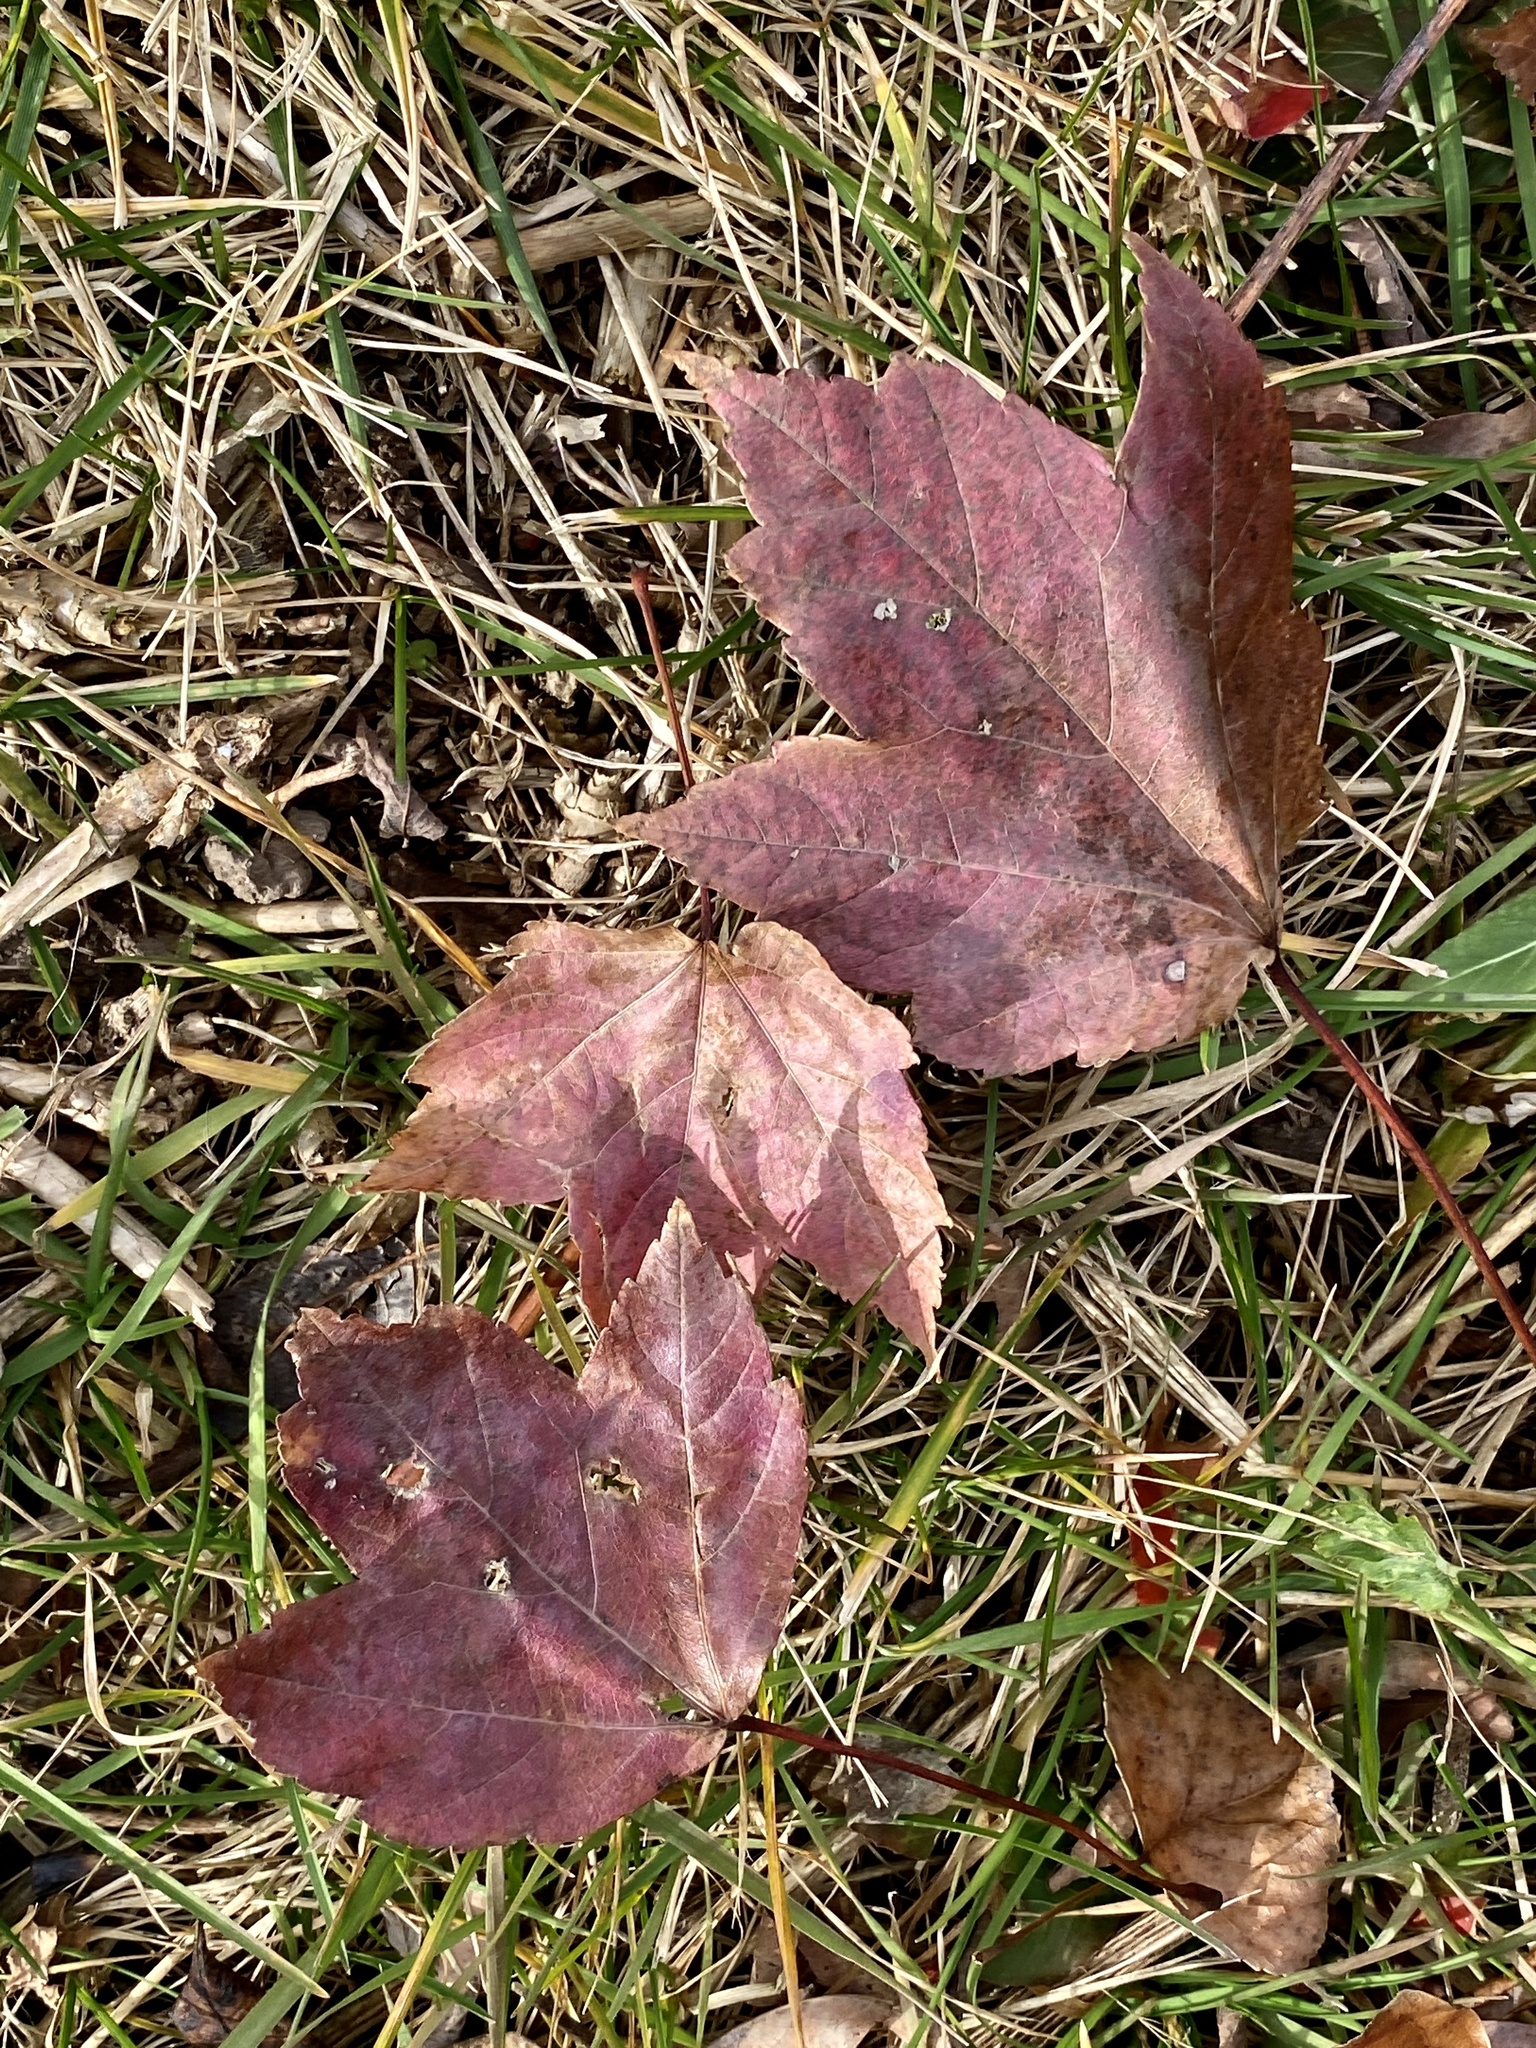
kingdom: Plantae
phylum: Tracheophyta
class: Magnoliopsida
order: Sapindales
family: Sapindaceae
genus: Acer
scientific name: Acer rubrum
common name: Red maple
